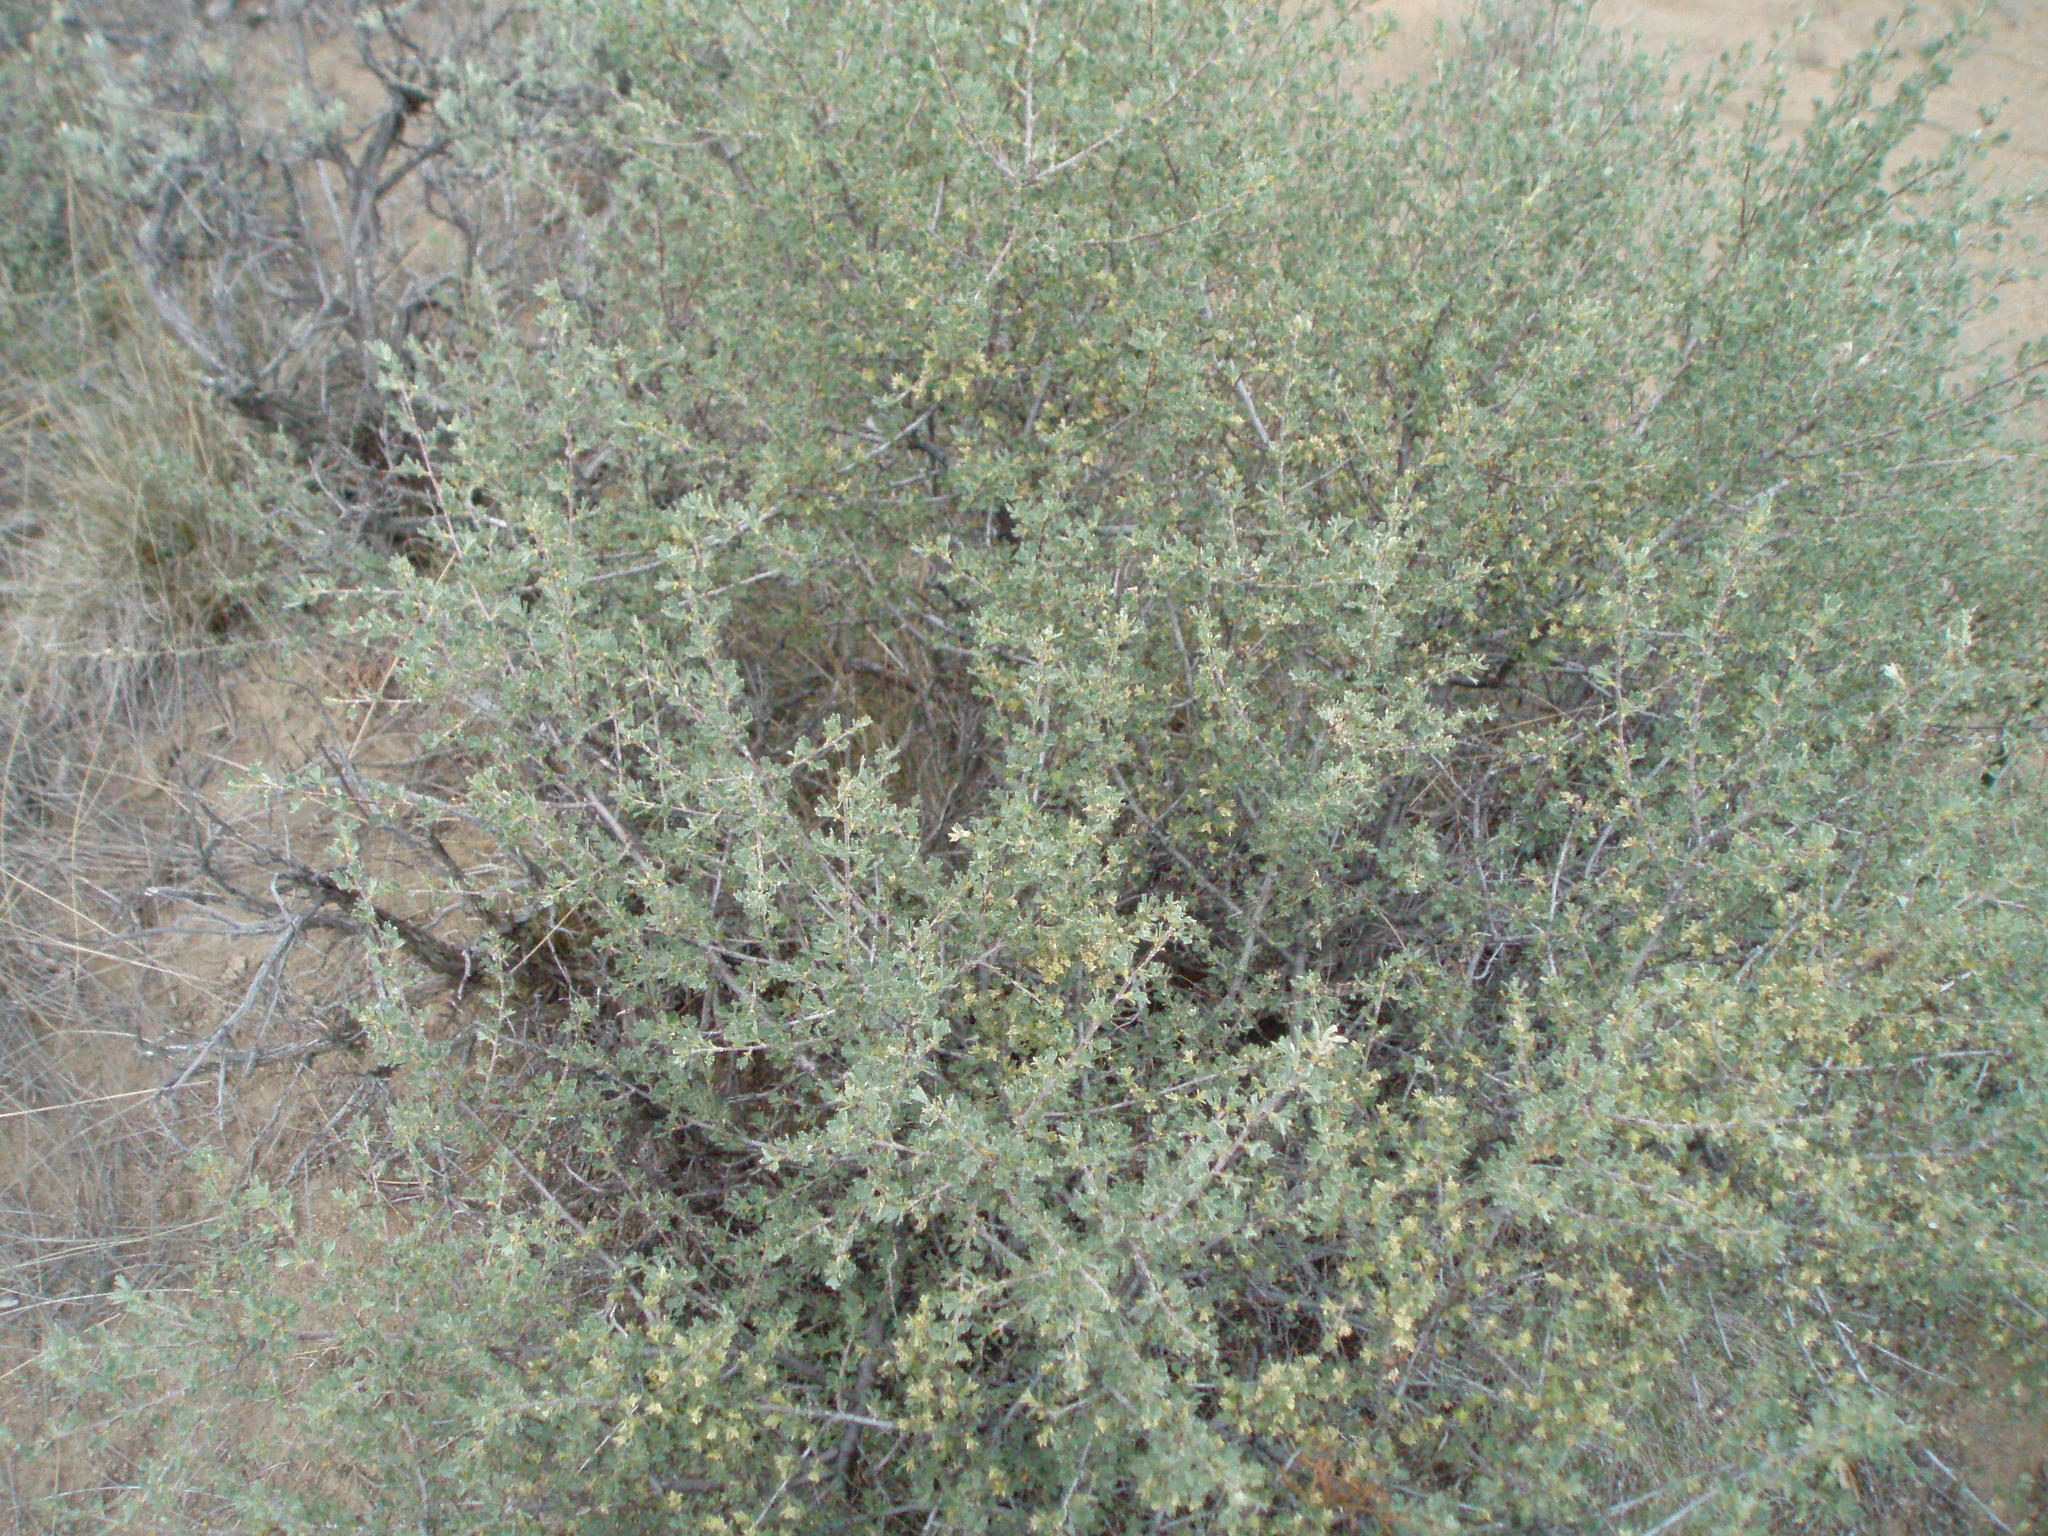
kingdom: Plantae
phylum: Tracheophyta
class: Magnoliopsida
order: Rosales
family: Rosaceae
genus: Purshia
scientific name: Purshia tridentata
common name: Antelope bitterbrush
